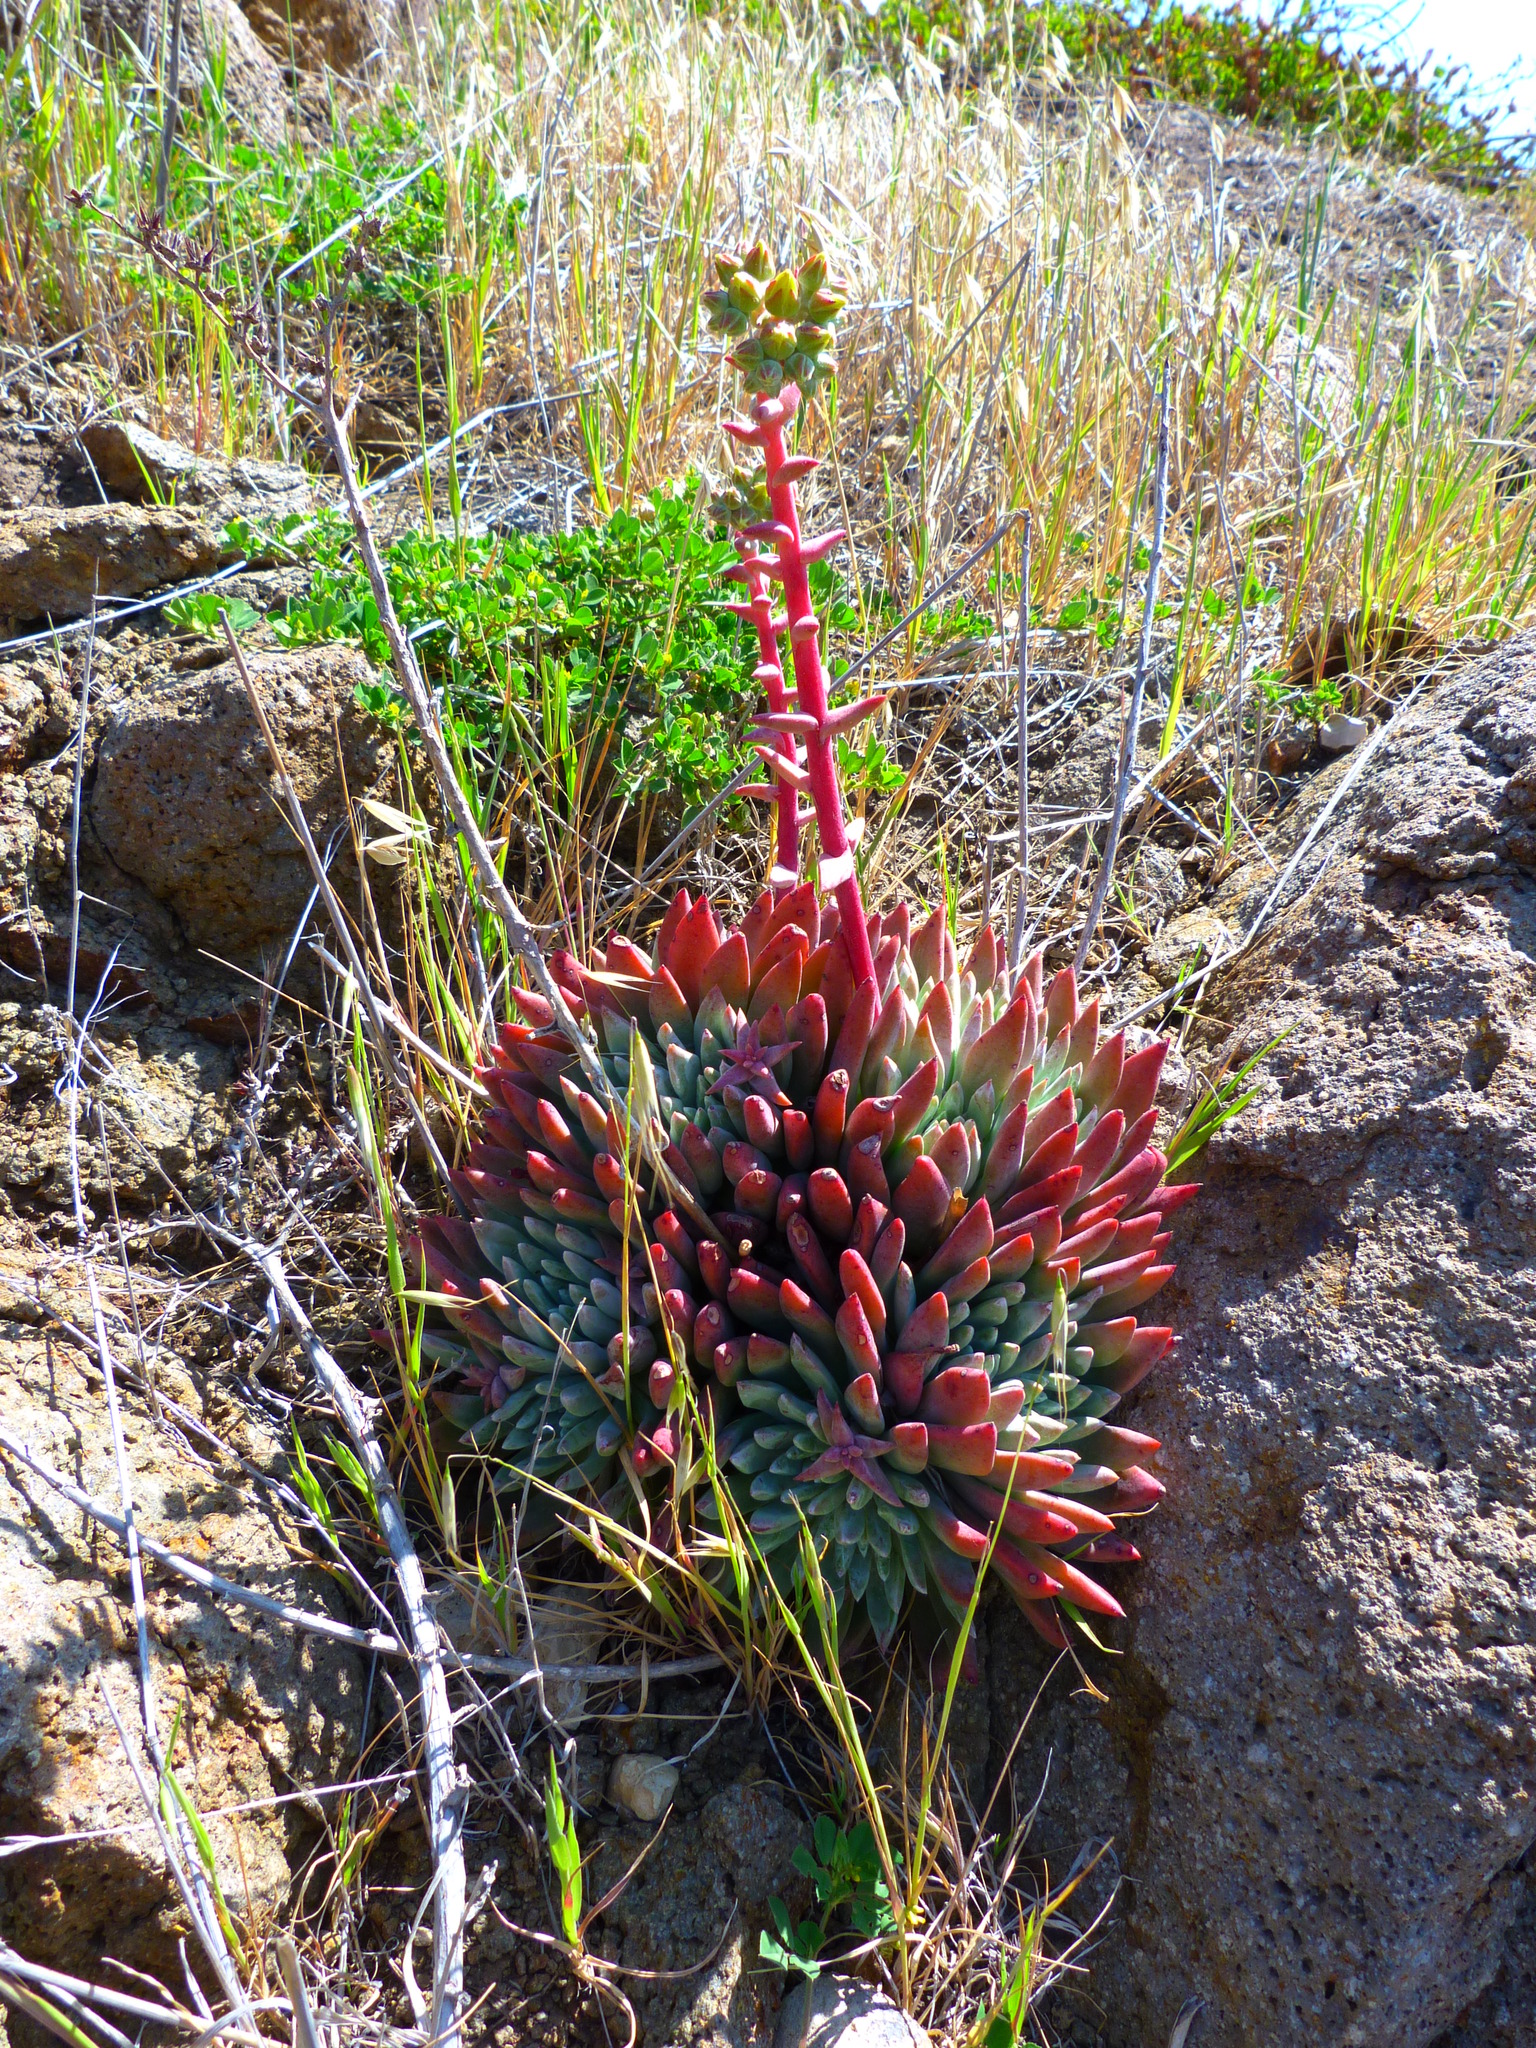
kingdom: Plantae
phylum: Tracheophyta
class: Magnoliopsida
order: Saxifragales
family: Crassulaceae
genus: Dudleya
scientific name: Dudleya greenei
